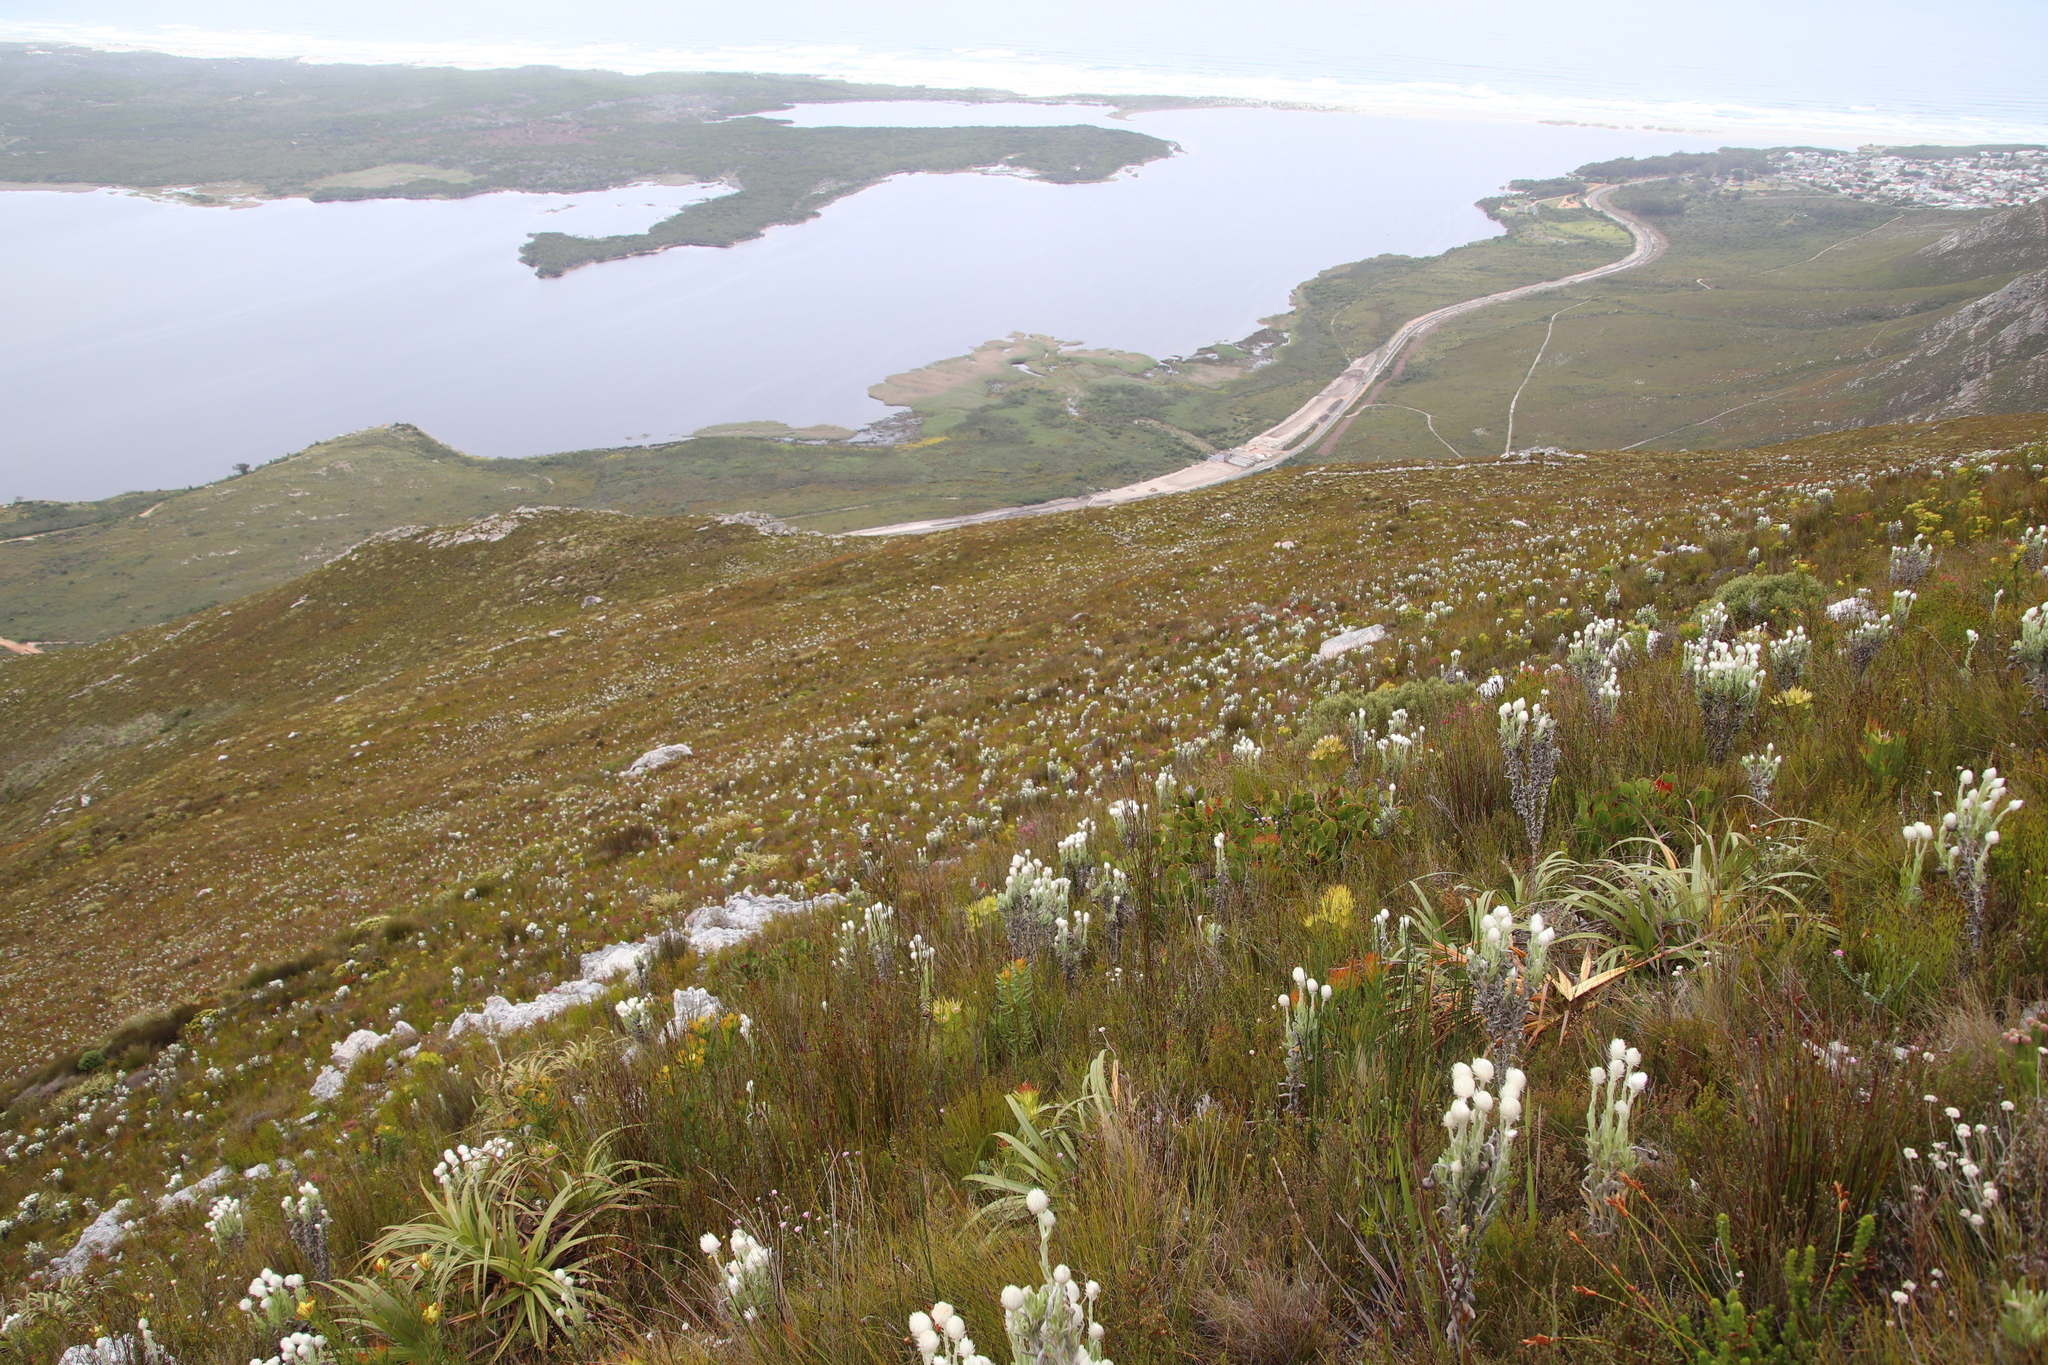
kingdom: Plantae
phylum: Tracheophyta
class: Magnoliopsida
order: Asterales
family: Asteraceae
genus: Syncarpha
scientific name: Syncarpha vestita
